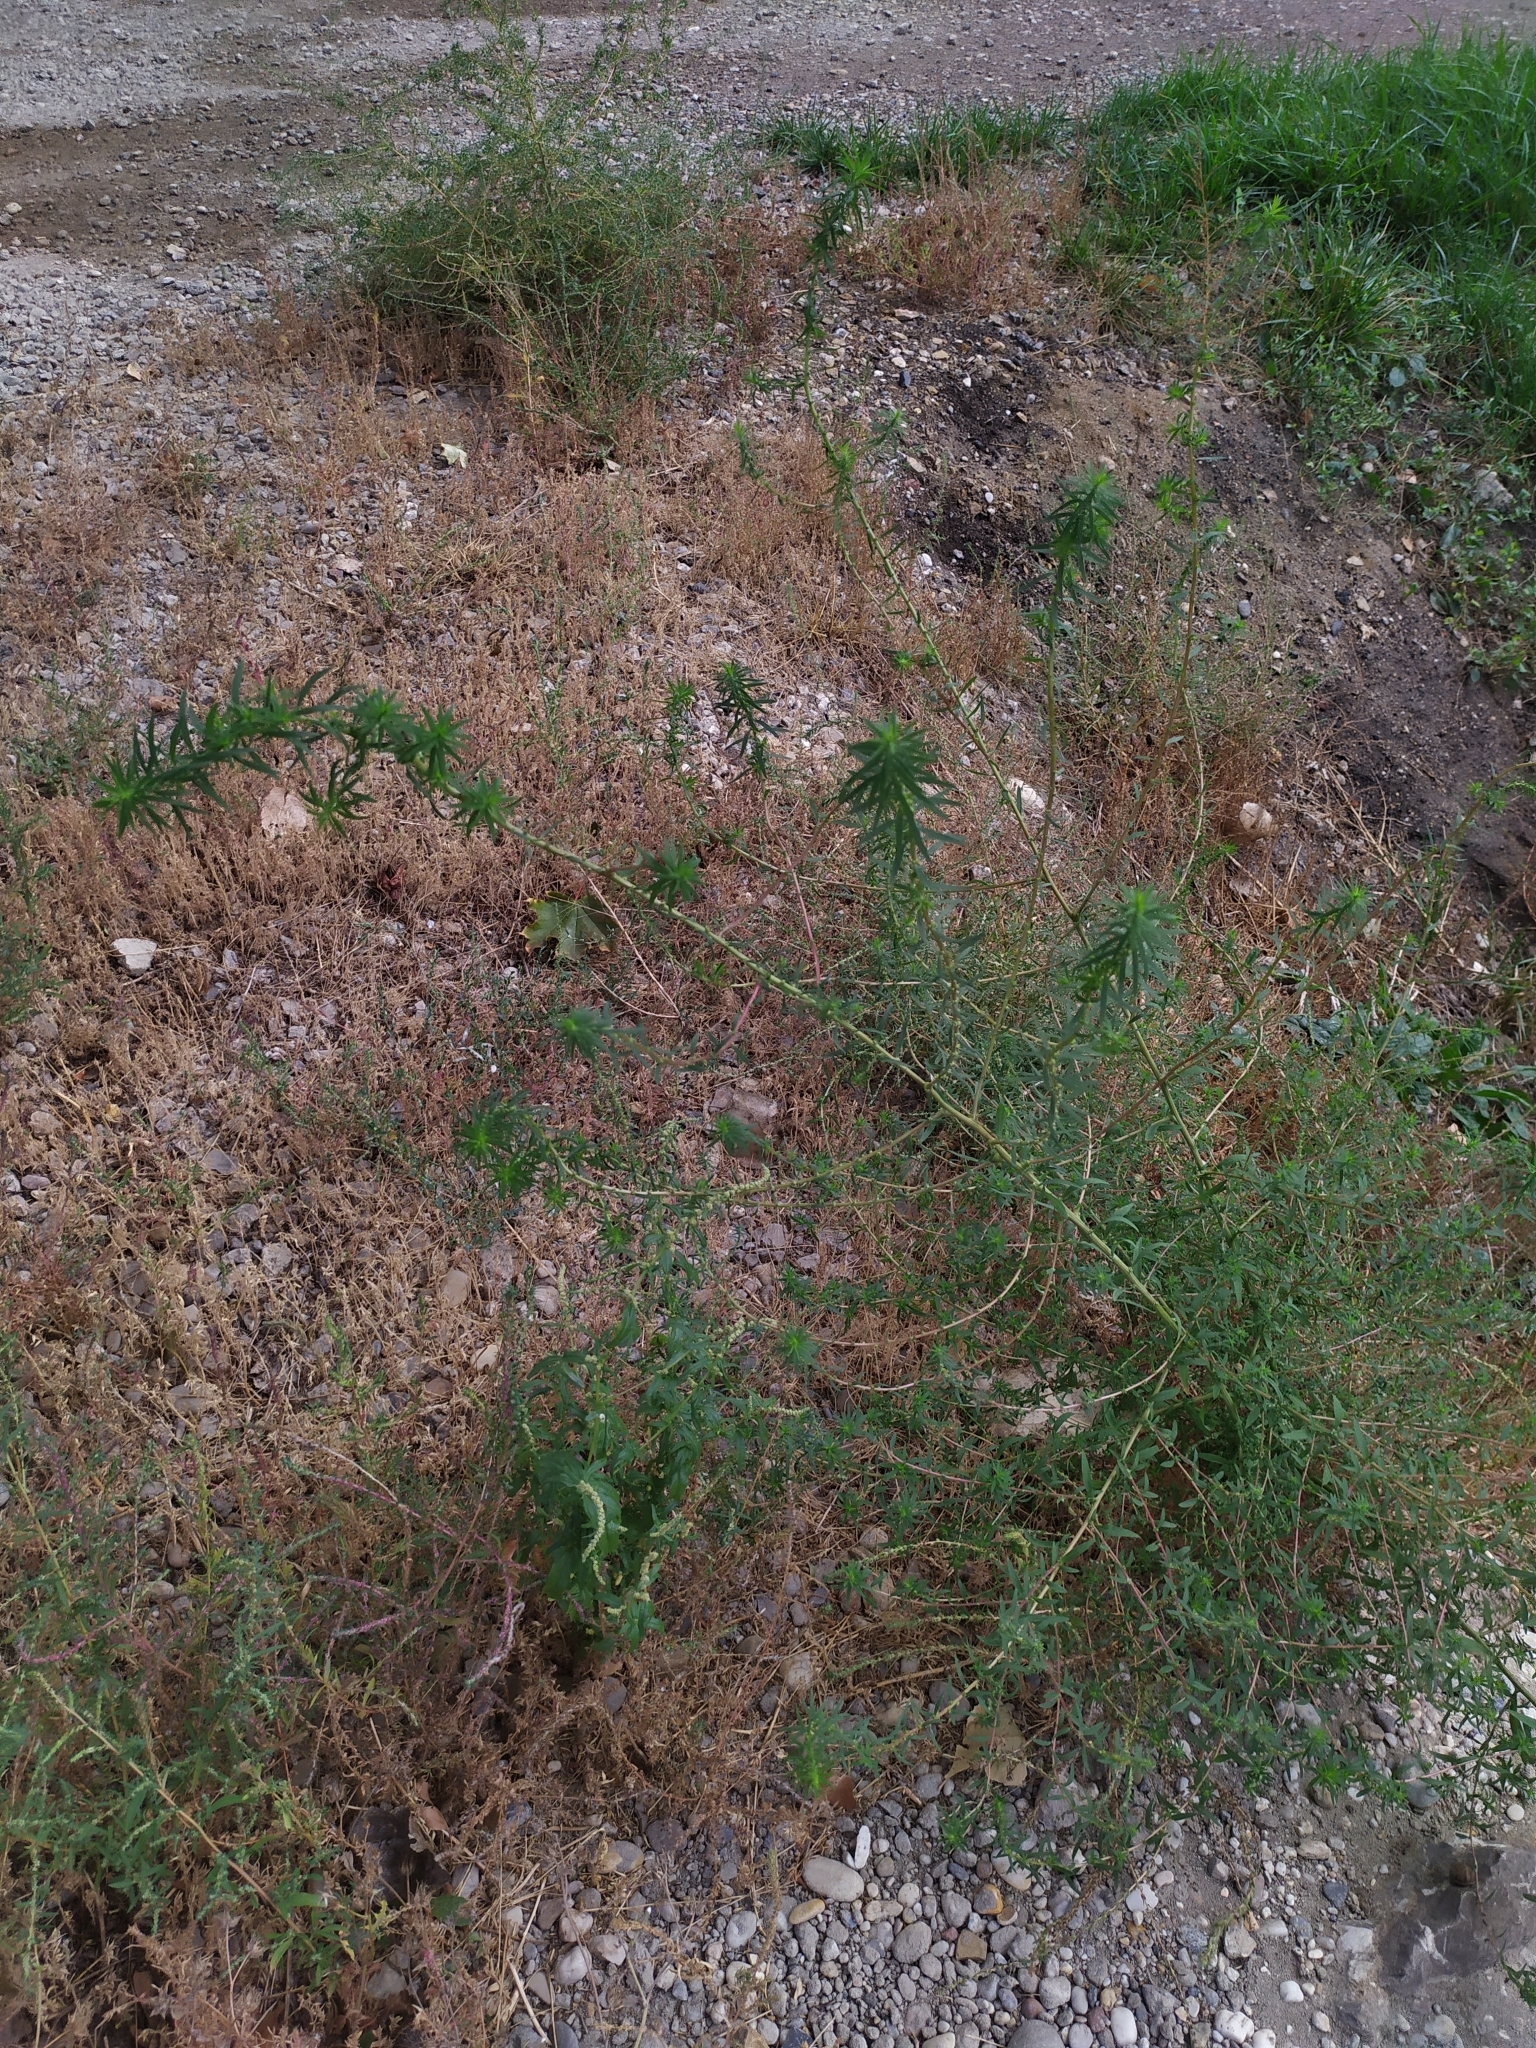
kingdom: Plantae
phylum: Tracheophyta
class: Magnoliopsida
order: Caryophyllales
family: Amaranthaceae
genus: Bassia
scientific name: Bassia scoparia
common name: Belvedere
